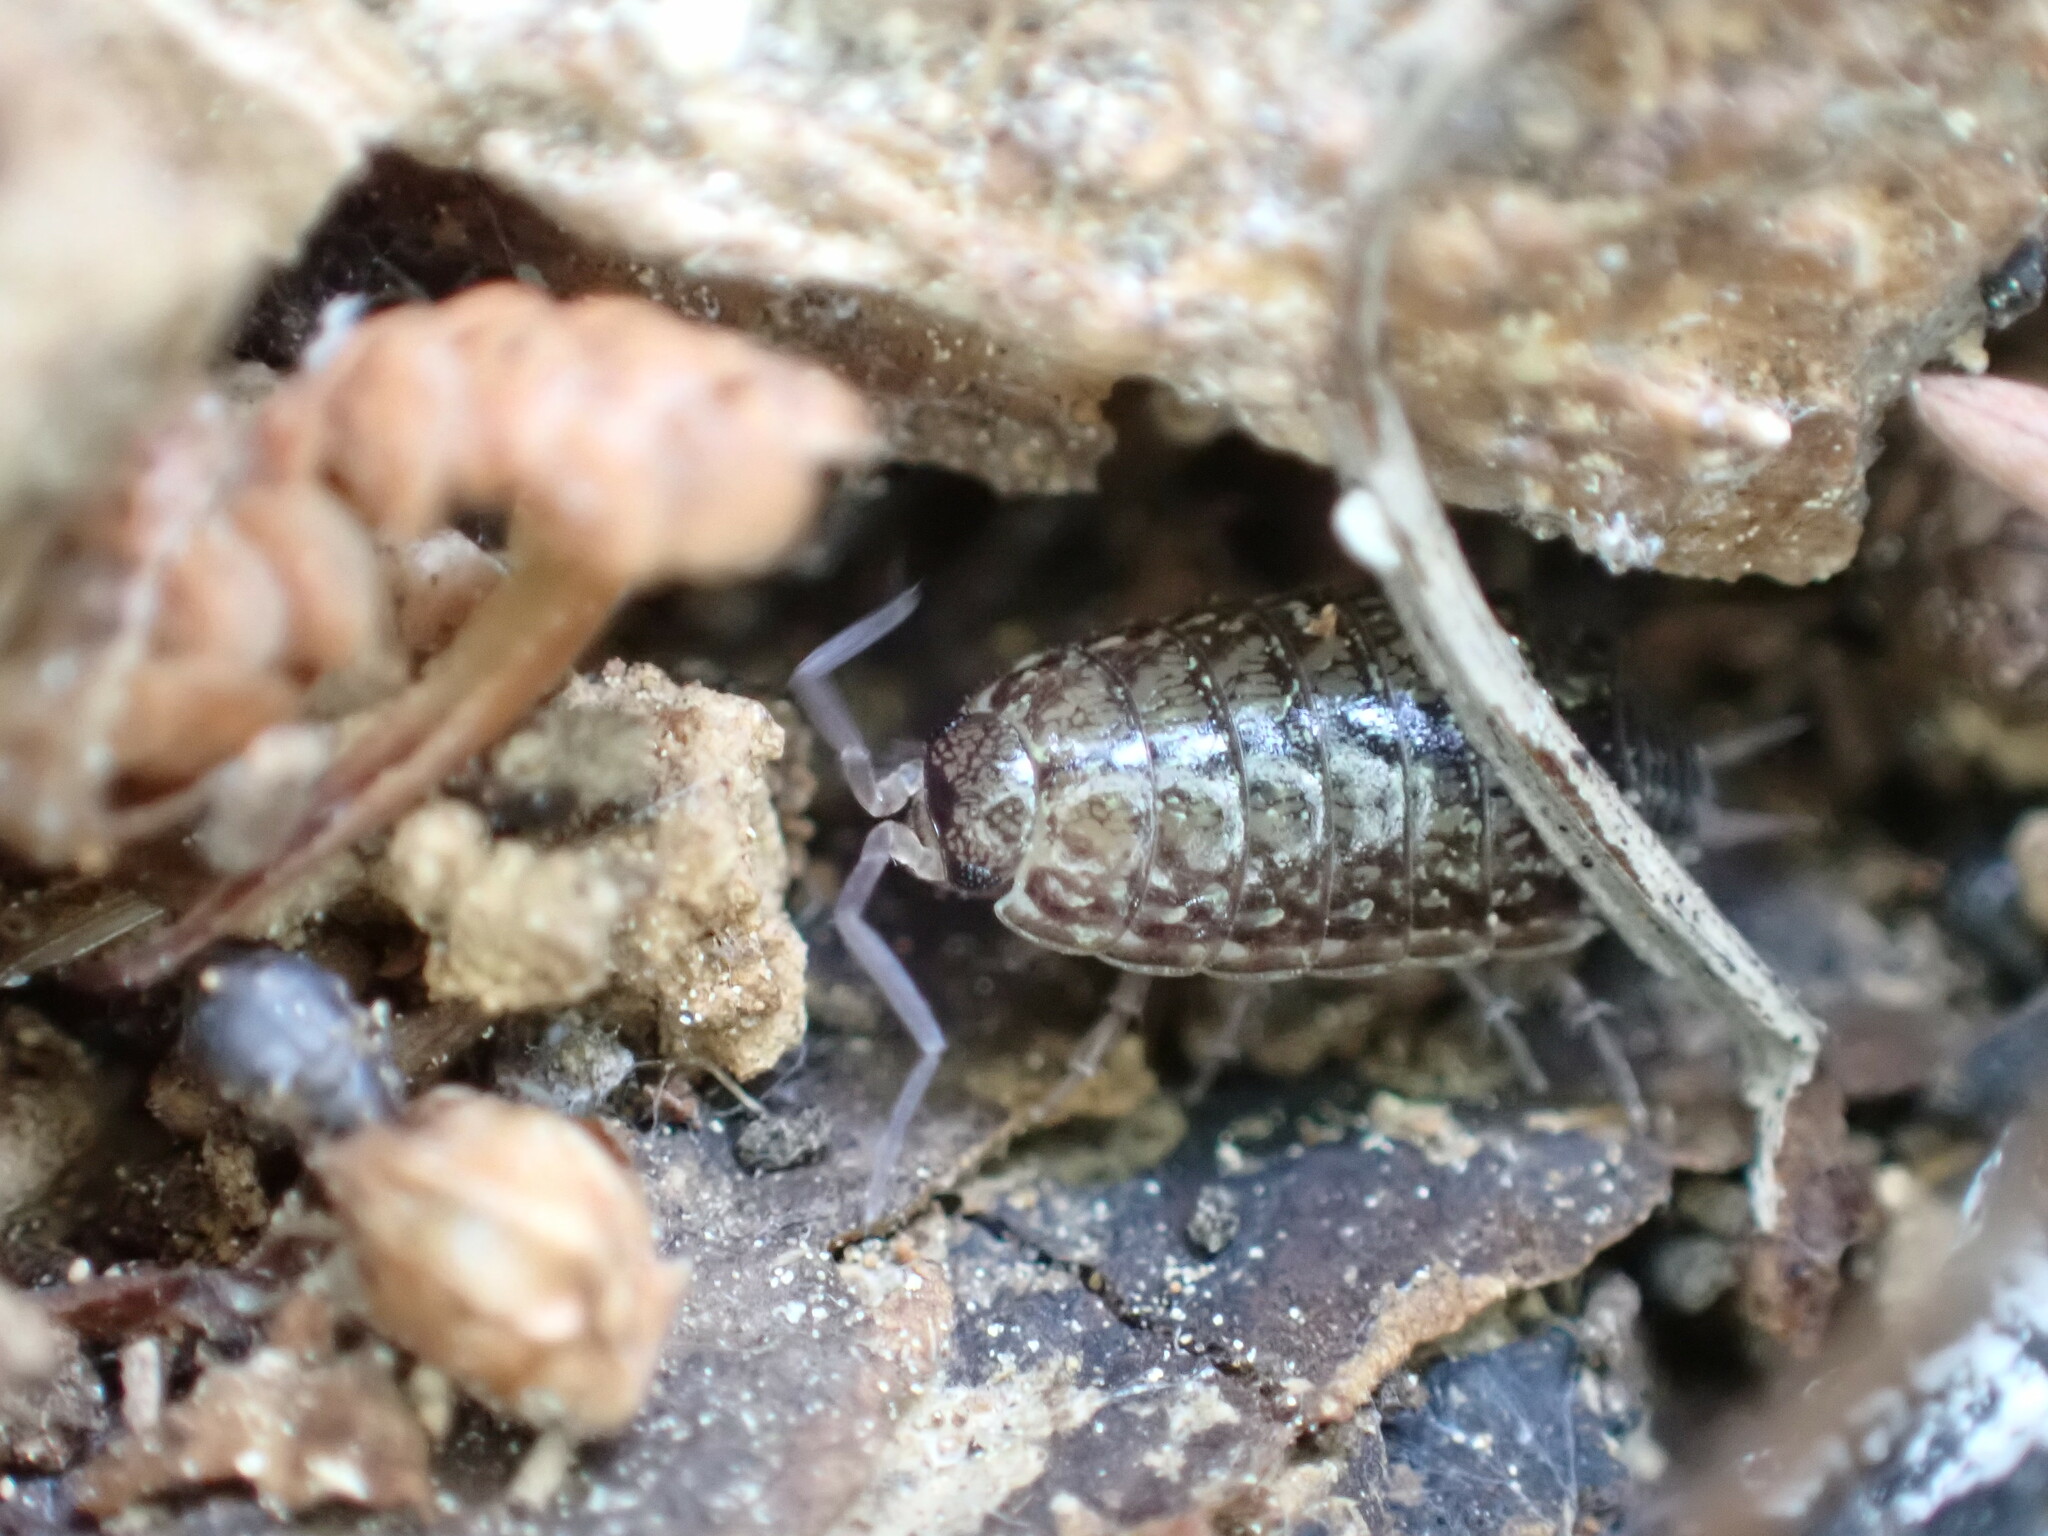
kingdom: Animalia
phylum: Arthropoda
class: Malacostraca
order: Isopoda
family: Philosciidae
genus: Philoscia
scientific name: Philoscia affinis
